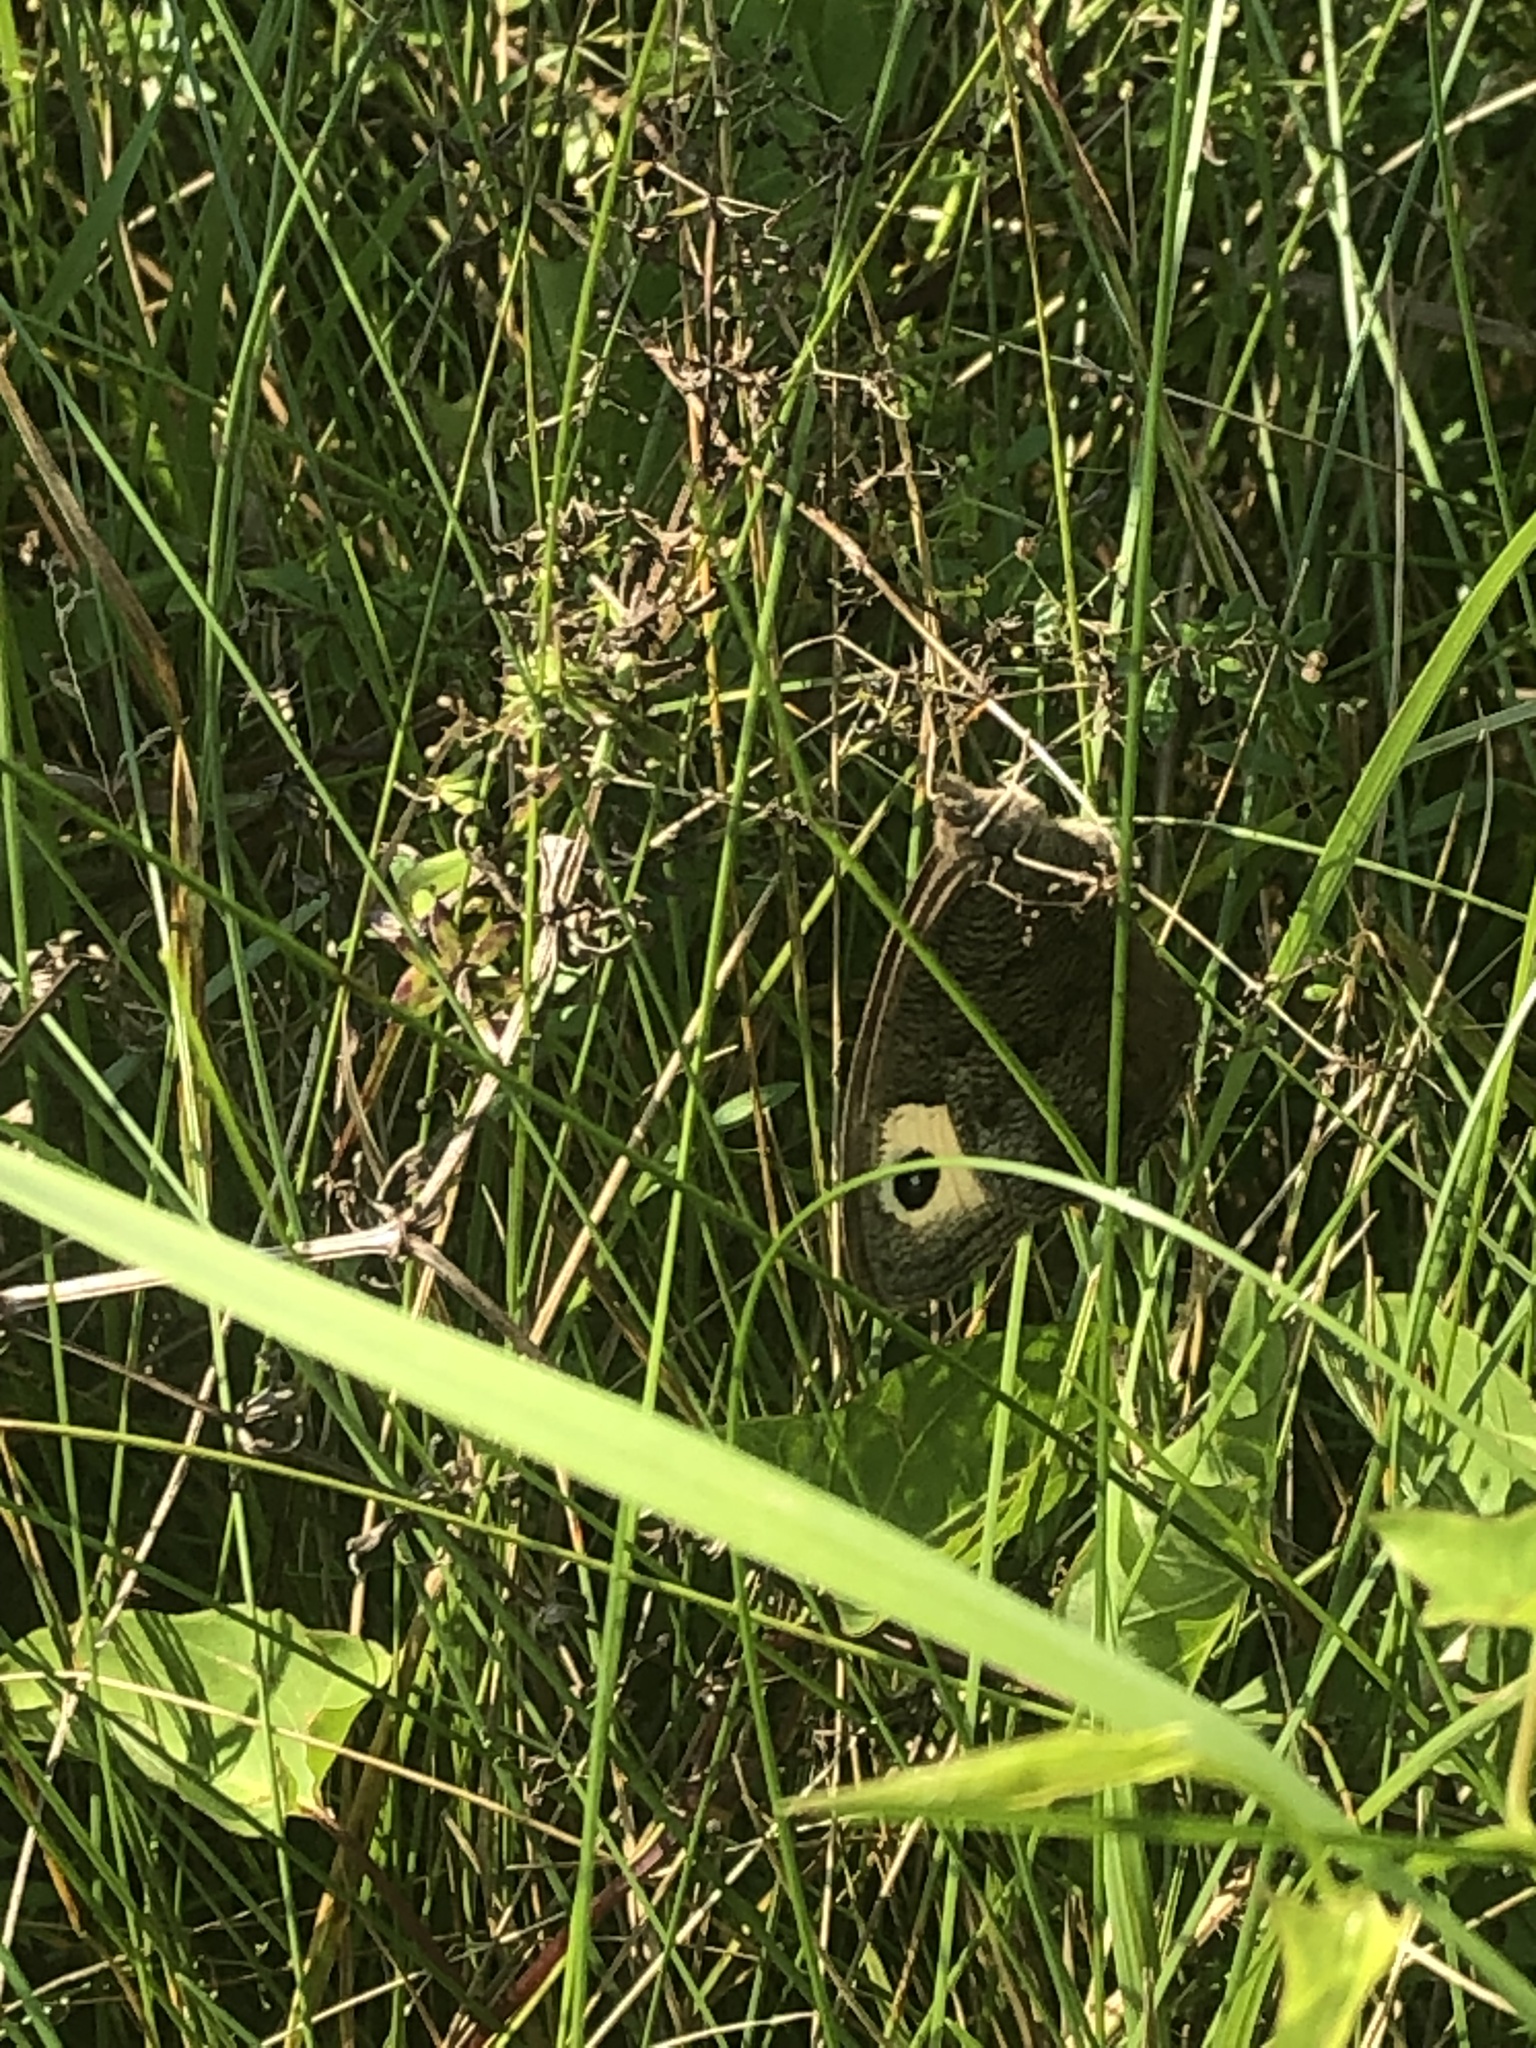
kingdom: Animalia
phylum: Arthropoda
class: Insecta
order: Lepidoptera
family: Nymphalidae
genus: Cercyonis
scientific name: Cercyonis pegala
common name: Common wood-nymph
